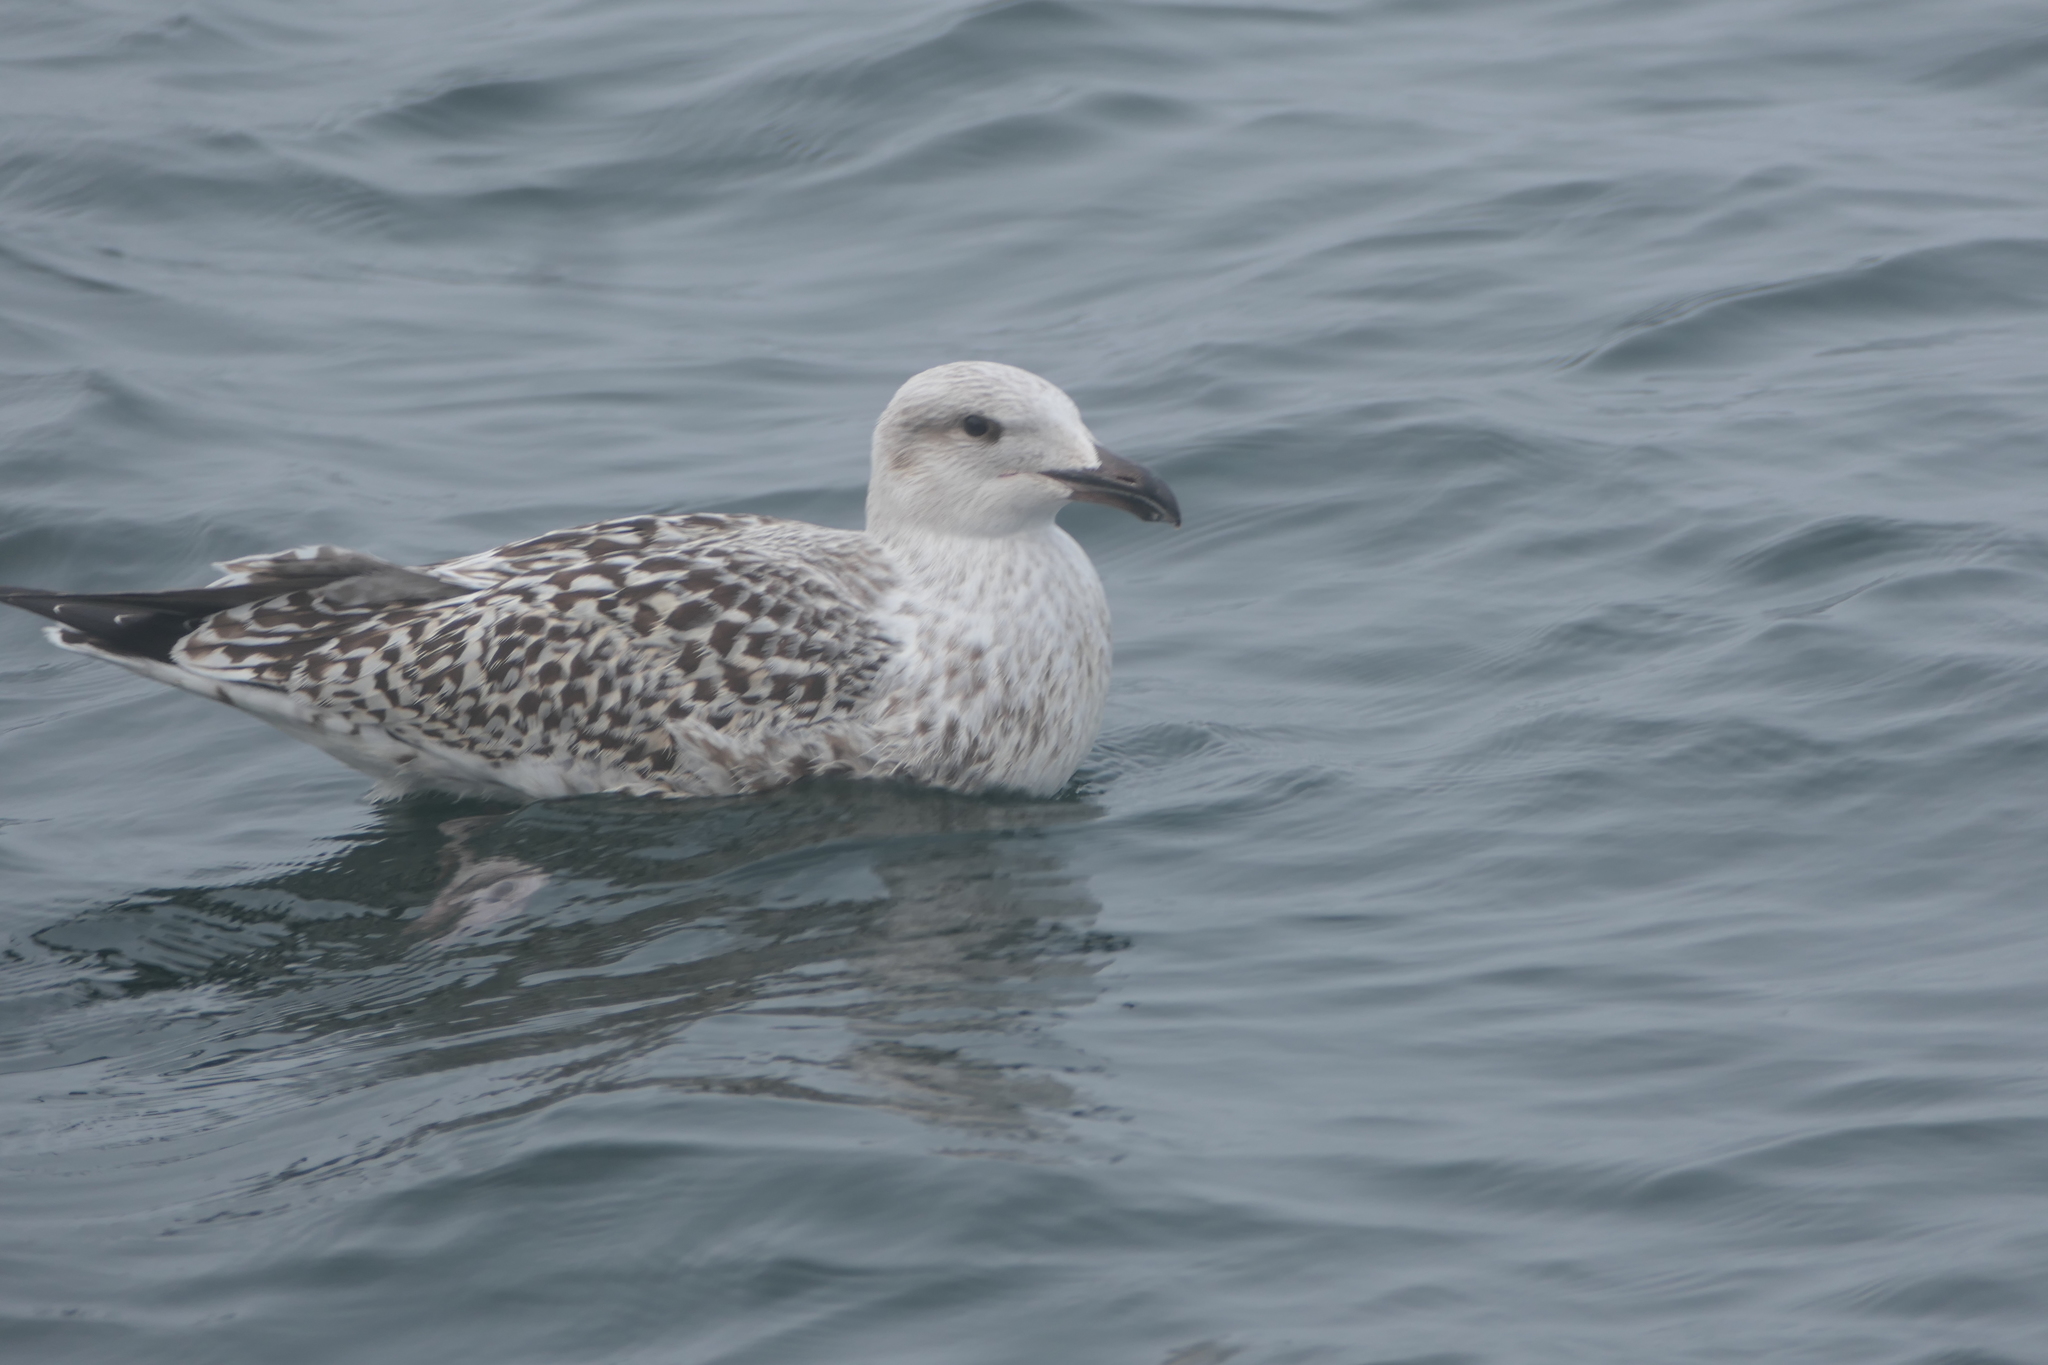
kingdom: Animalia
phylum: Chordata
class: Aves
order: Charadriiformes
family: Laridae
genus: Larus
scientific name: Larus marinus
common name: Great black-backed gull
